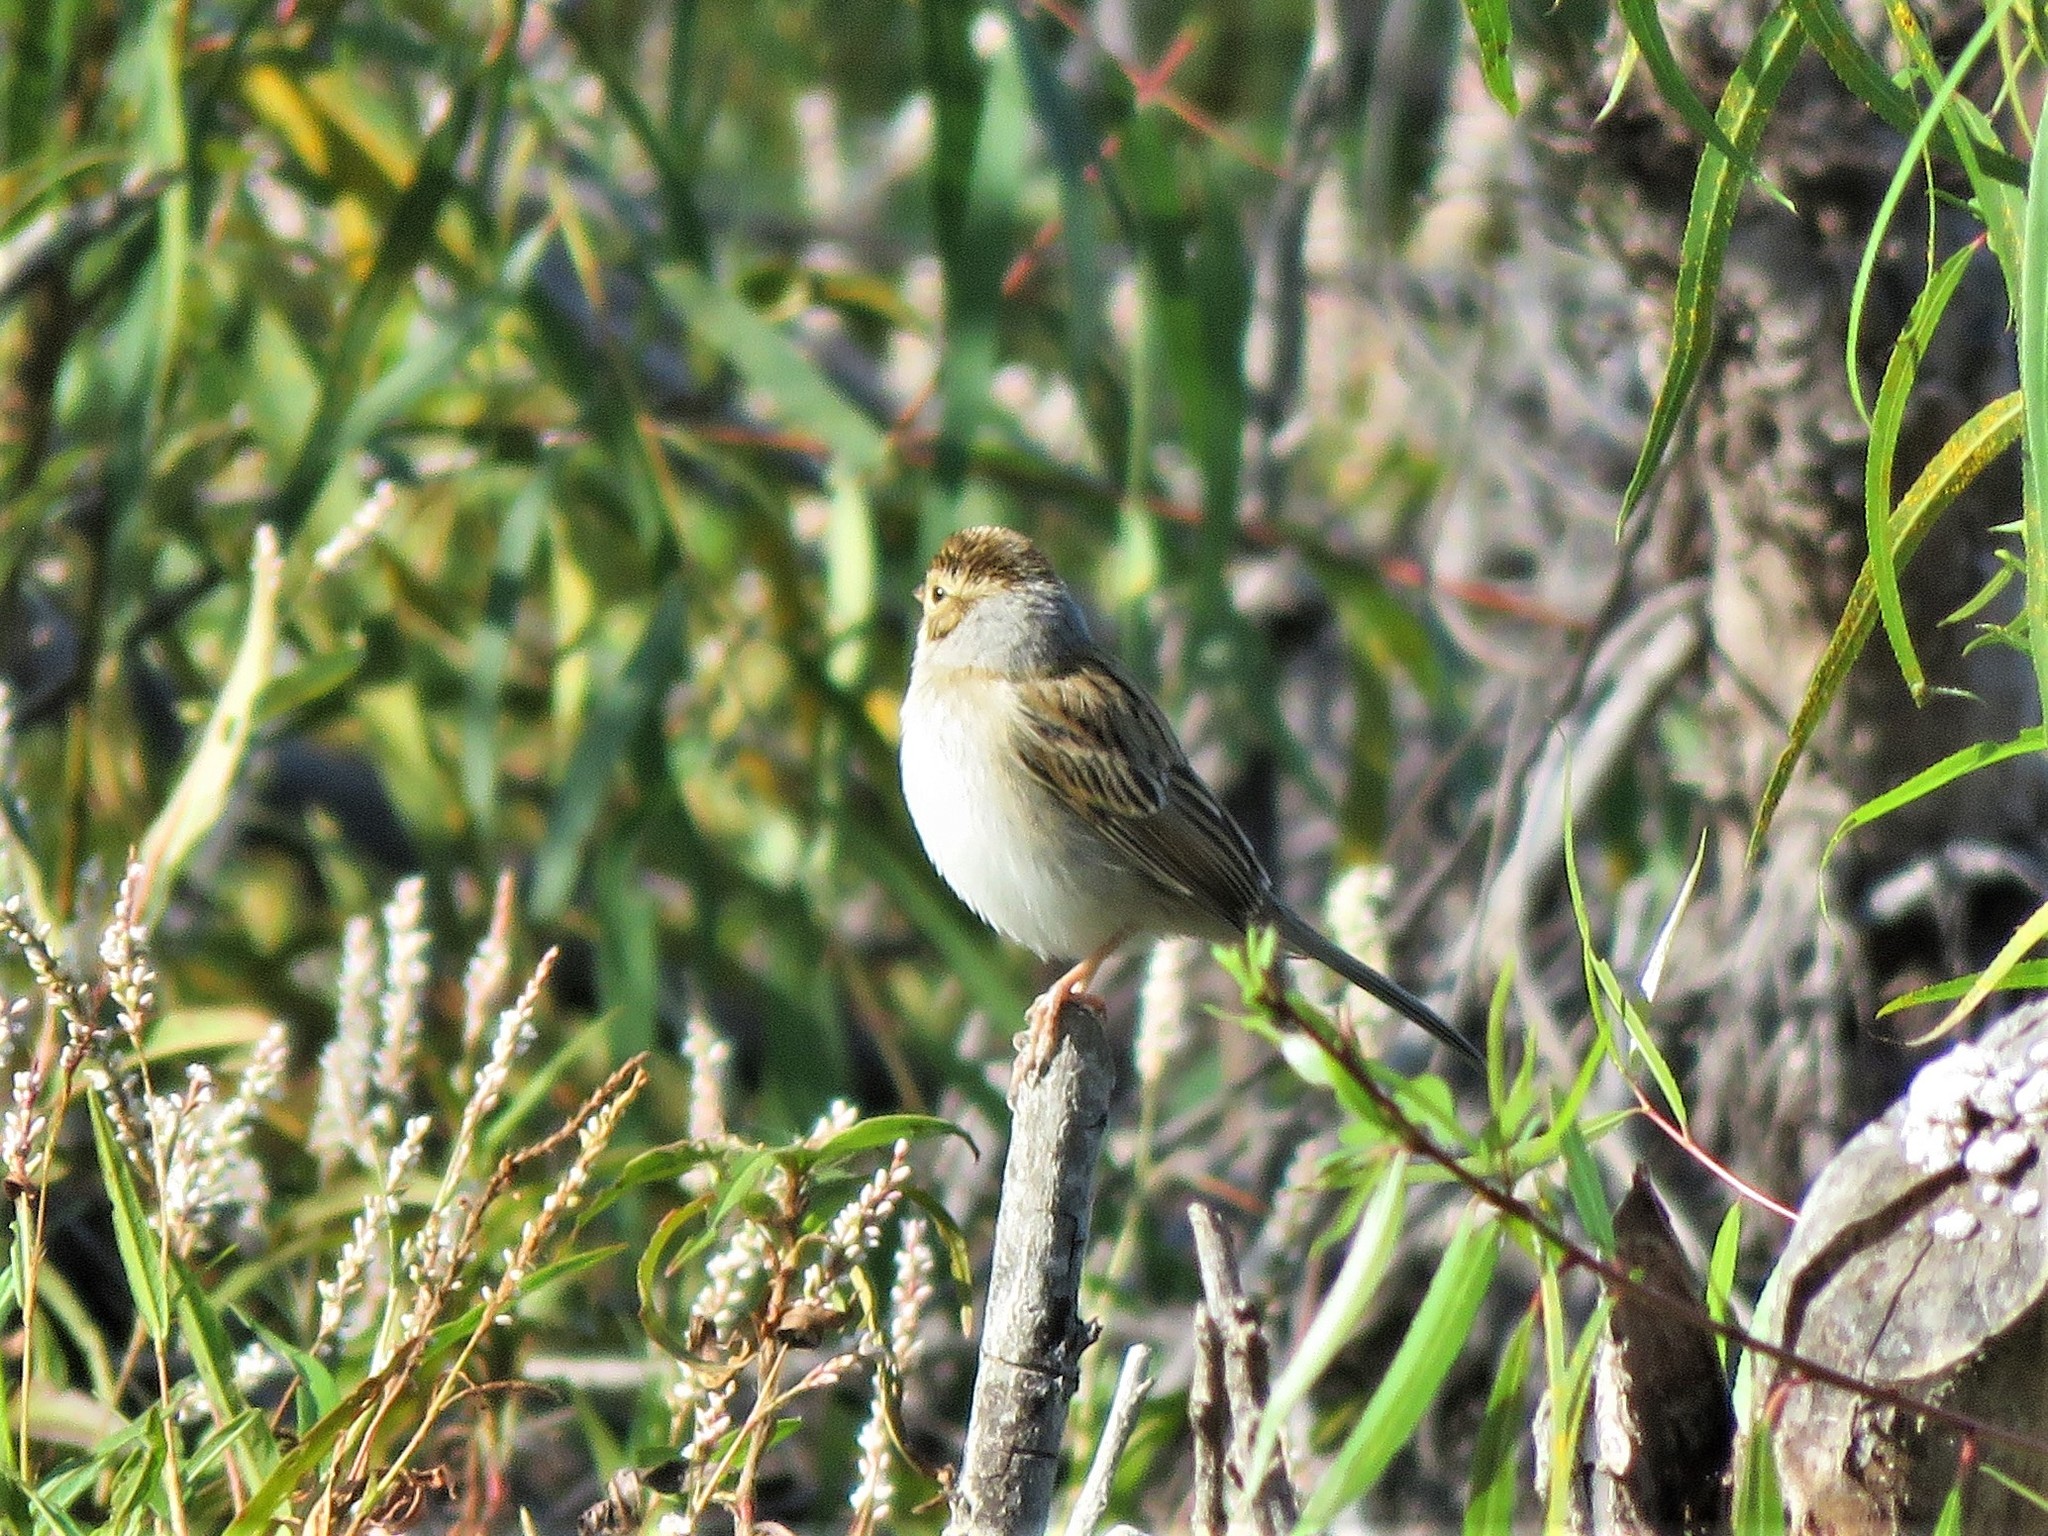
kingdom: Animalia
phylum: Chordata
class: Aves
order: Passeriformes
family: Passerellidae
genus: Spizella
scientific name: Spizella pallida
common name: Clay-colored sparrow
